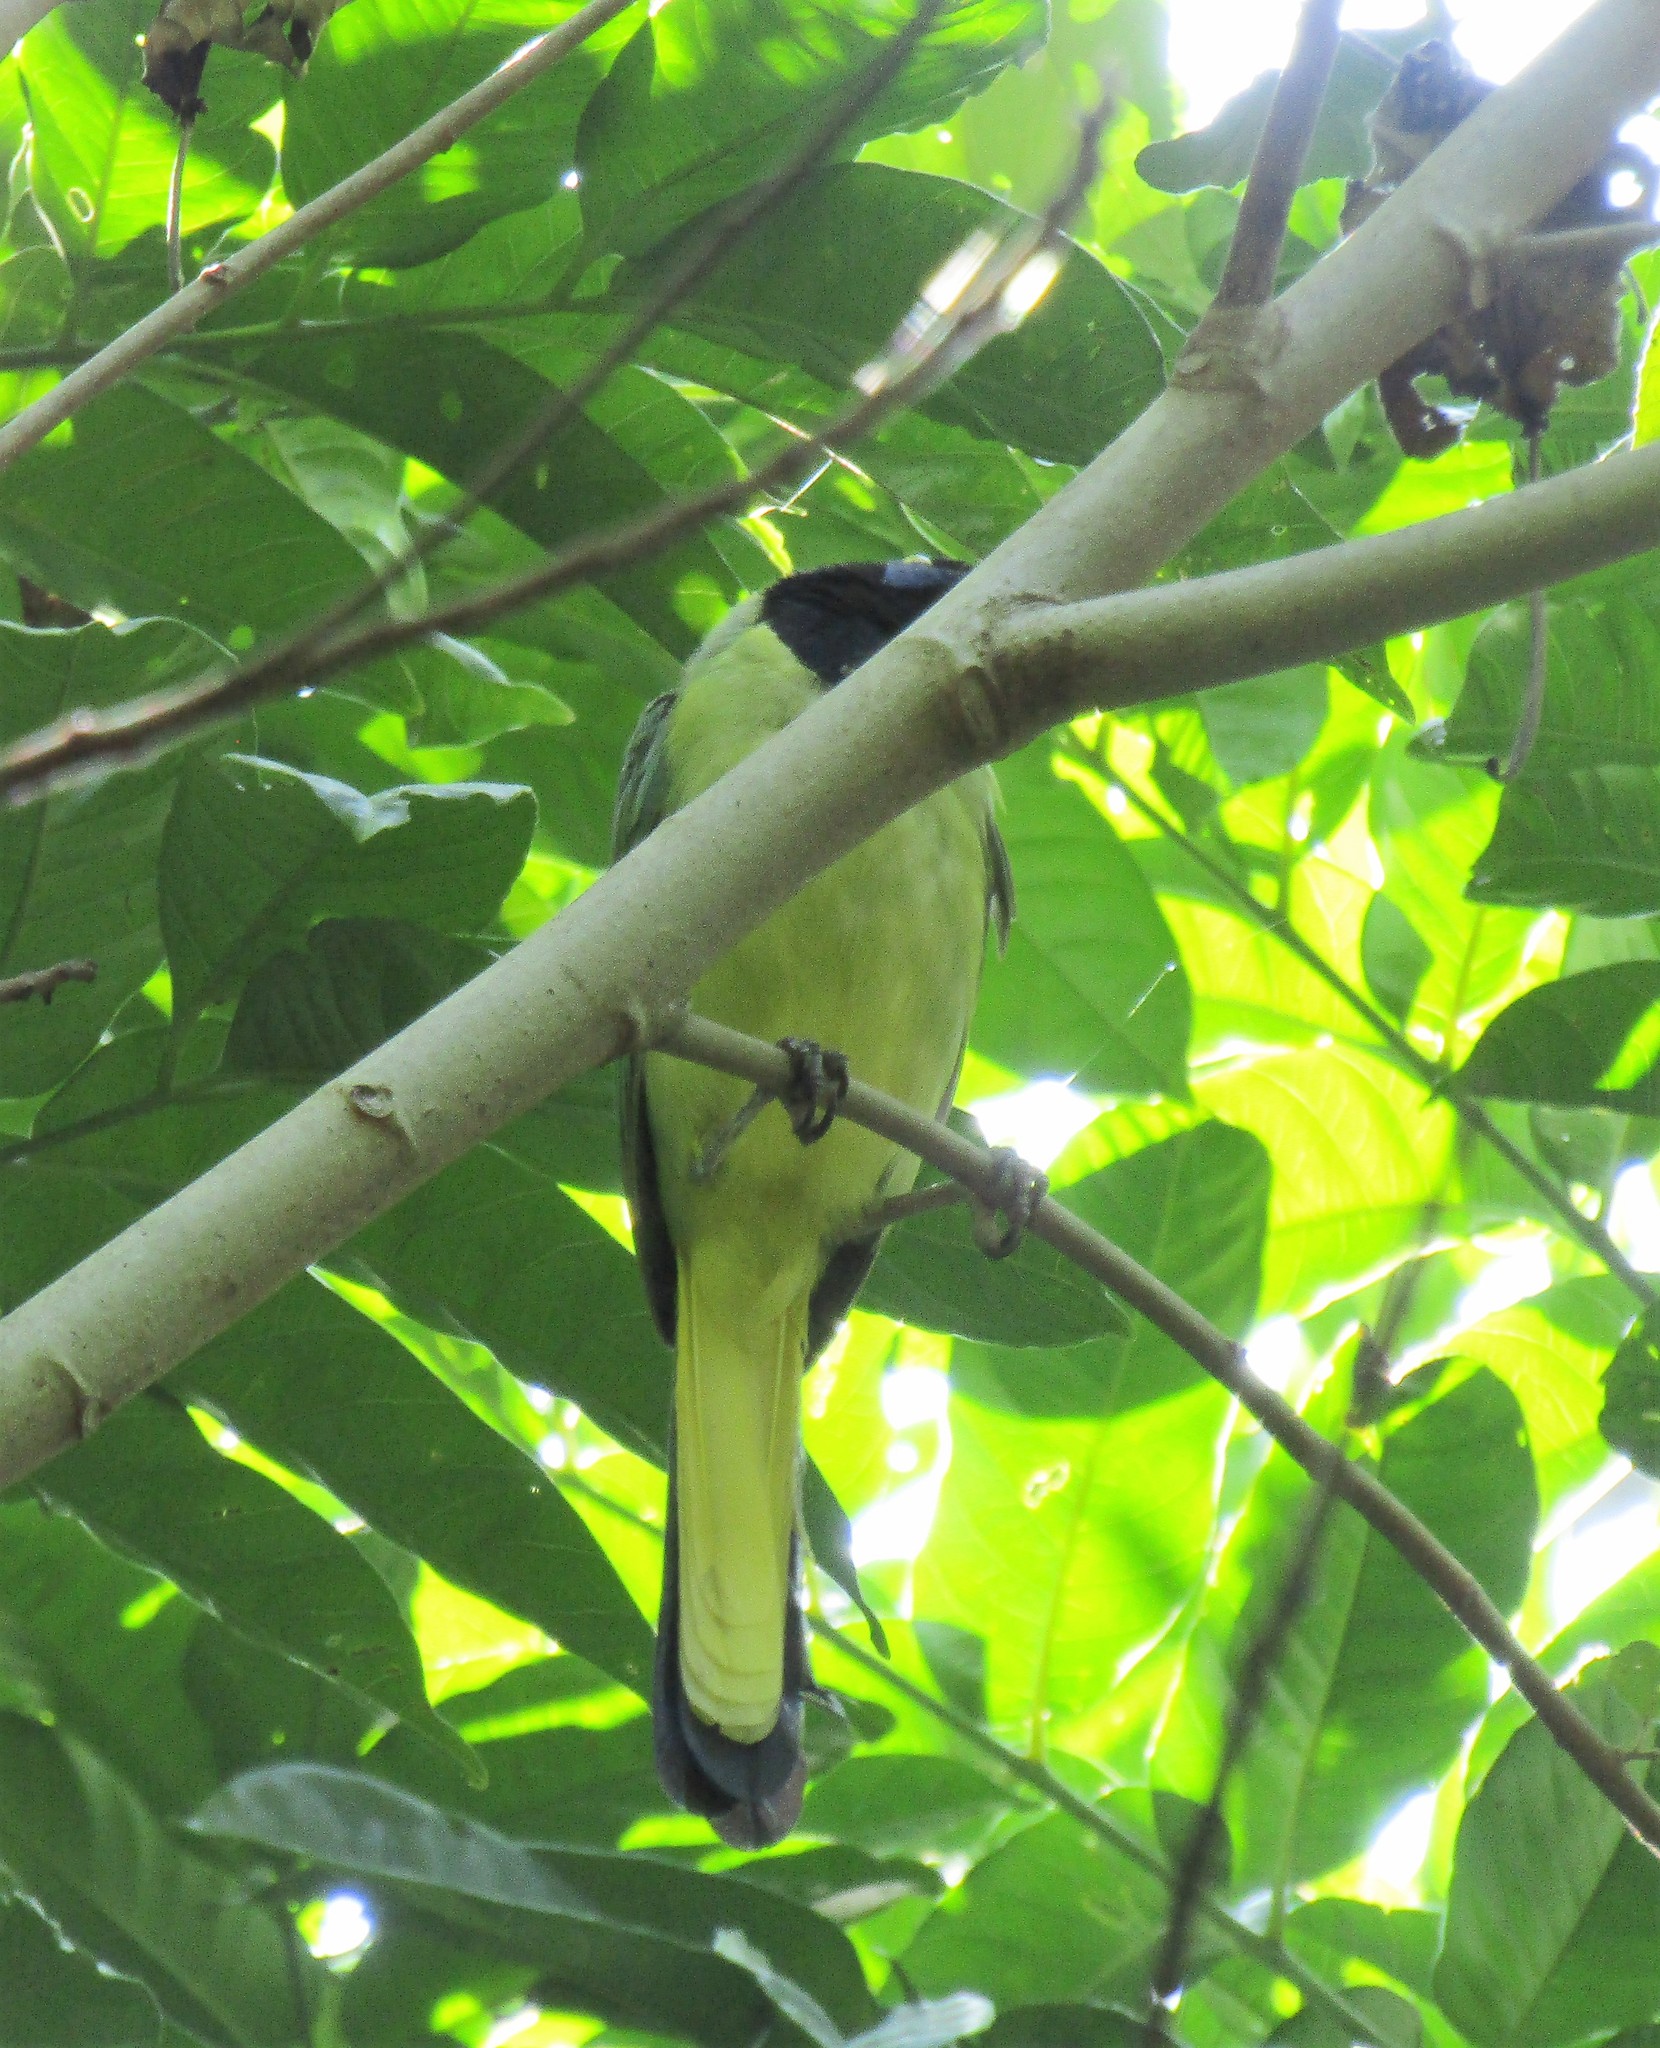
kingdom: Animalia
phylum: Chordata
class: Aves
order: Passeriformes
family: Corvidae
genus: Cyanocorax
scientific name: Cyanocorax yncas
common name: Green jay
